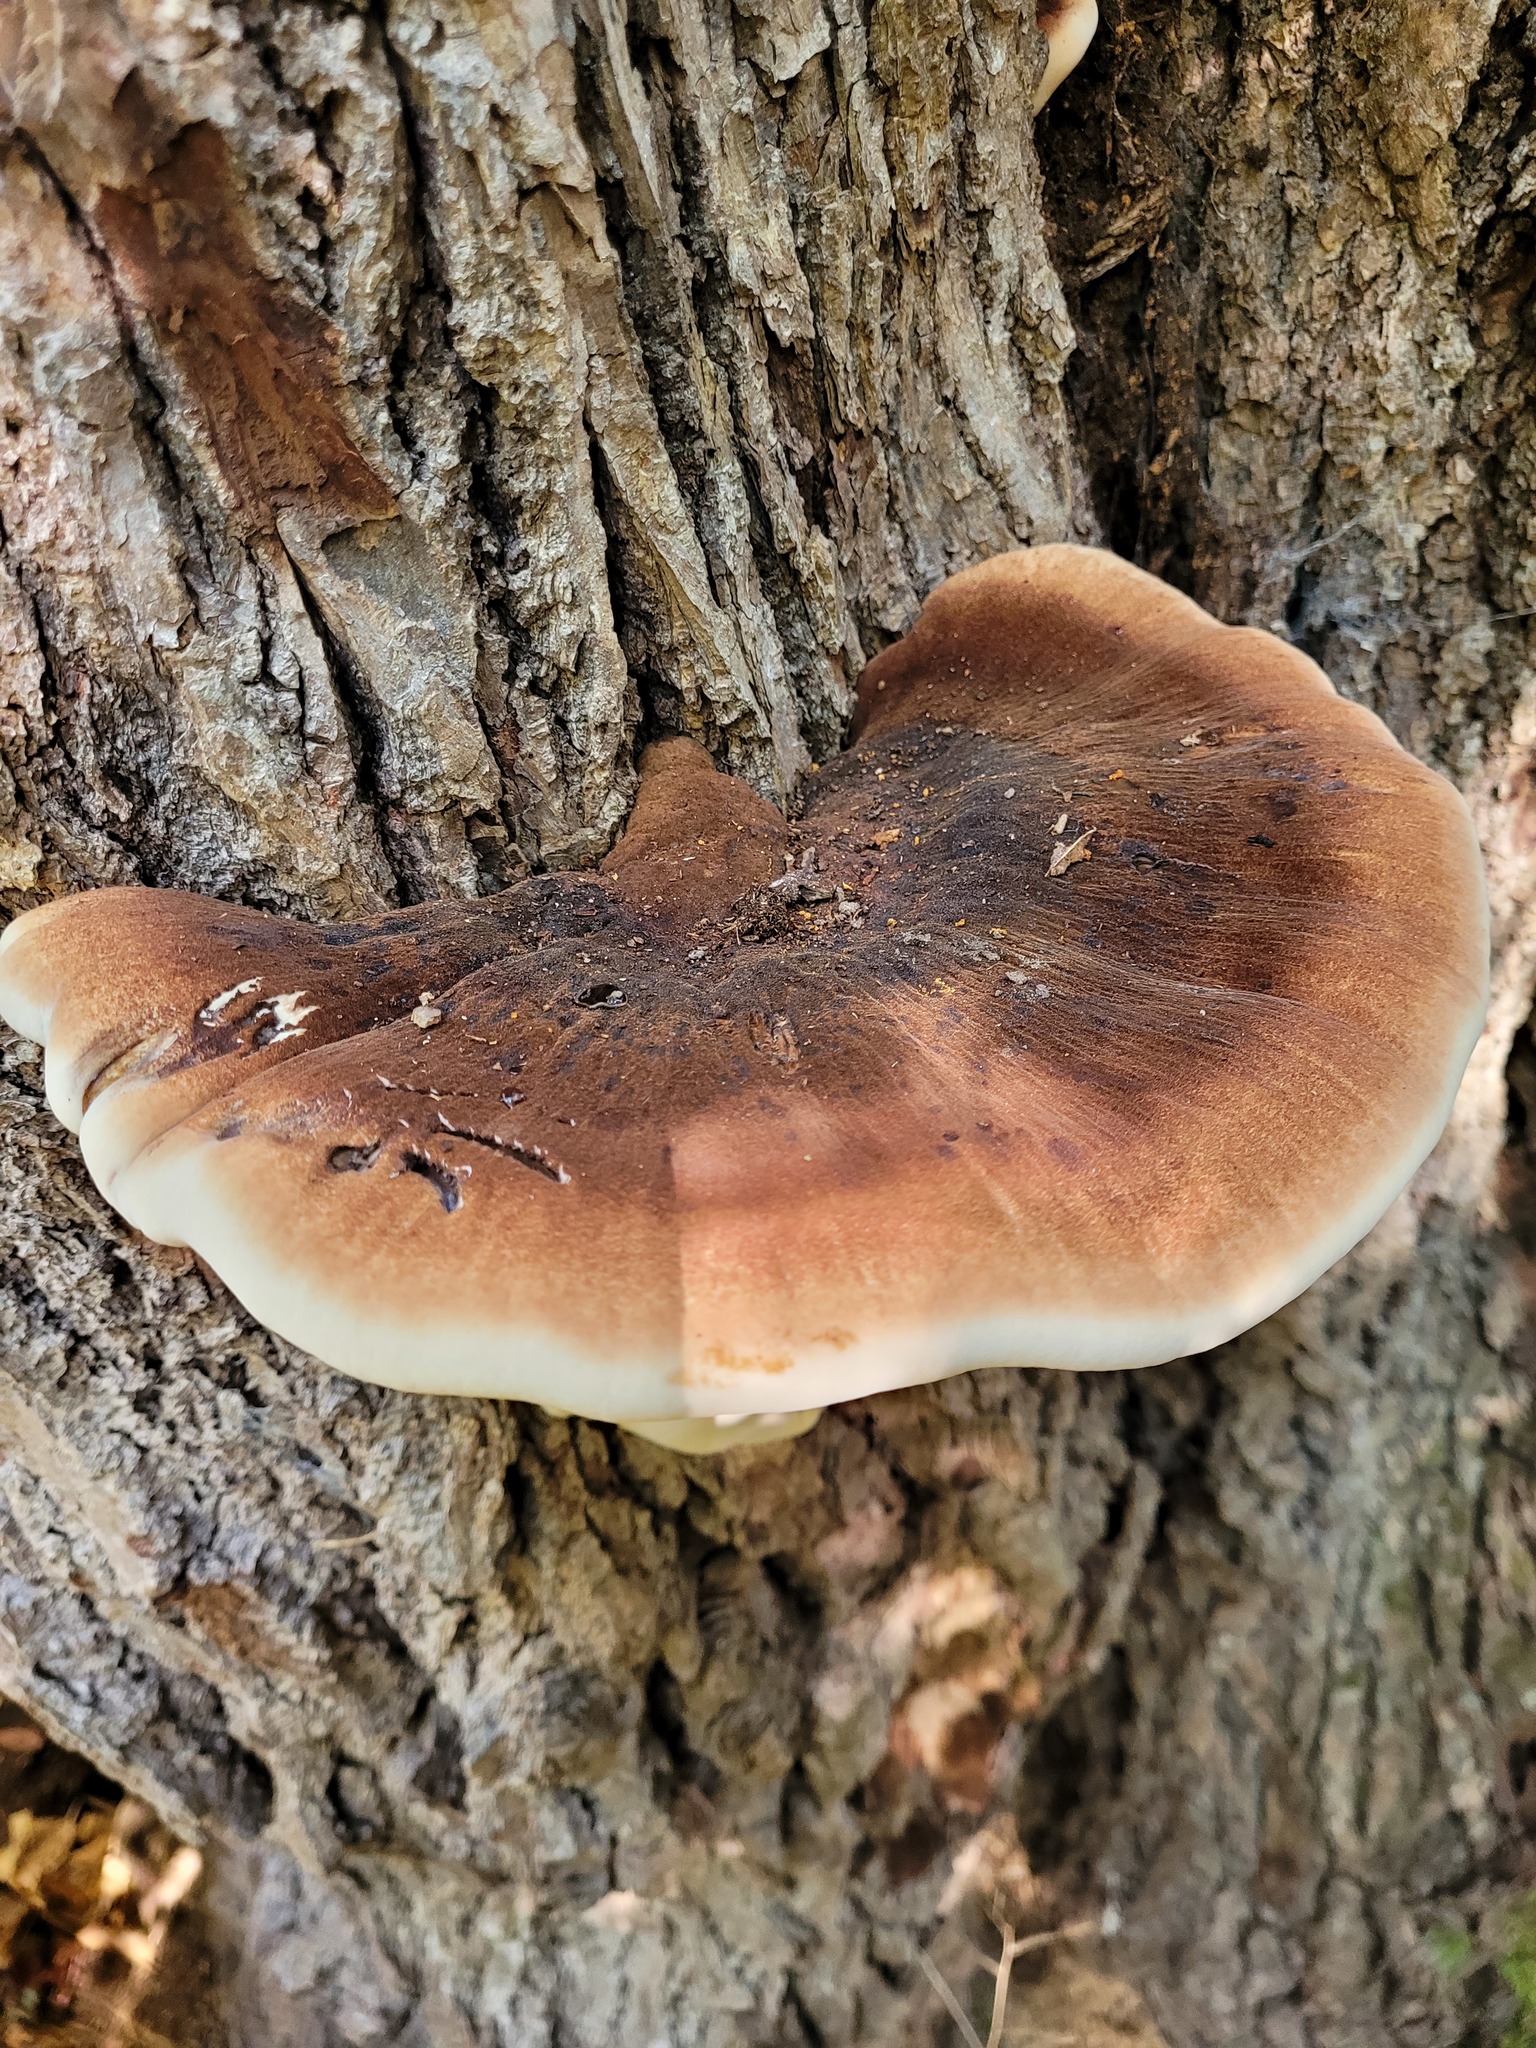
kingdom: Fungi
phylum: Basidiomycota
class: Agaricomycetes
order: Polyporales
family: Ischnodermataceae
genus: Ischnoderma
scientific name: Ischnoderma resinosum
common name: Resinous polypore
